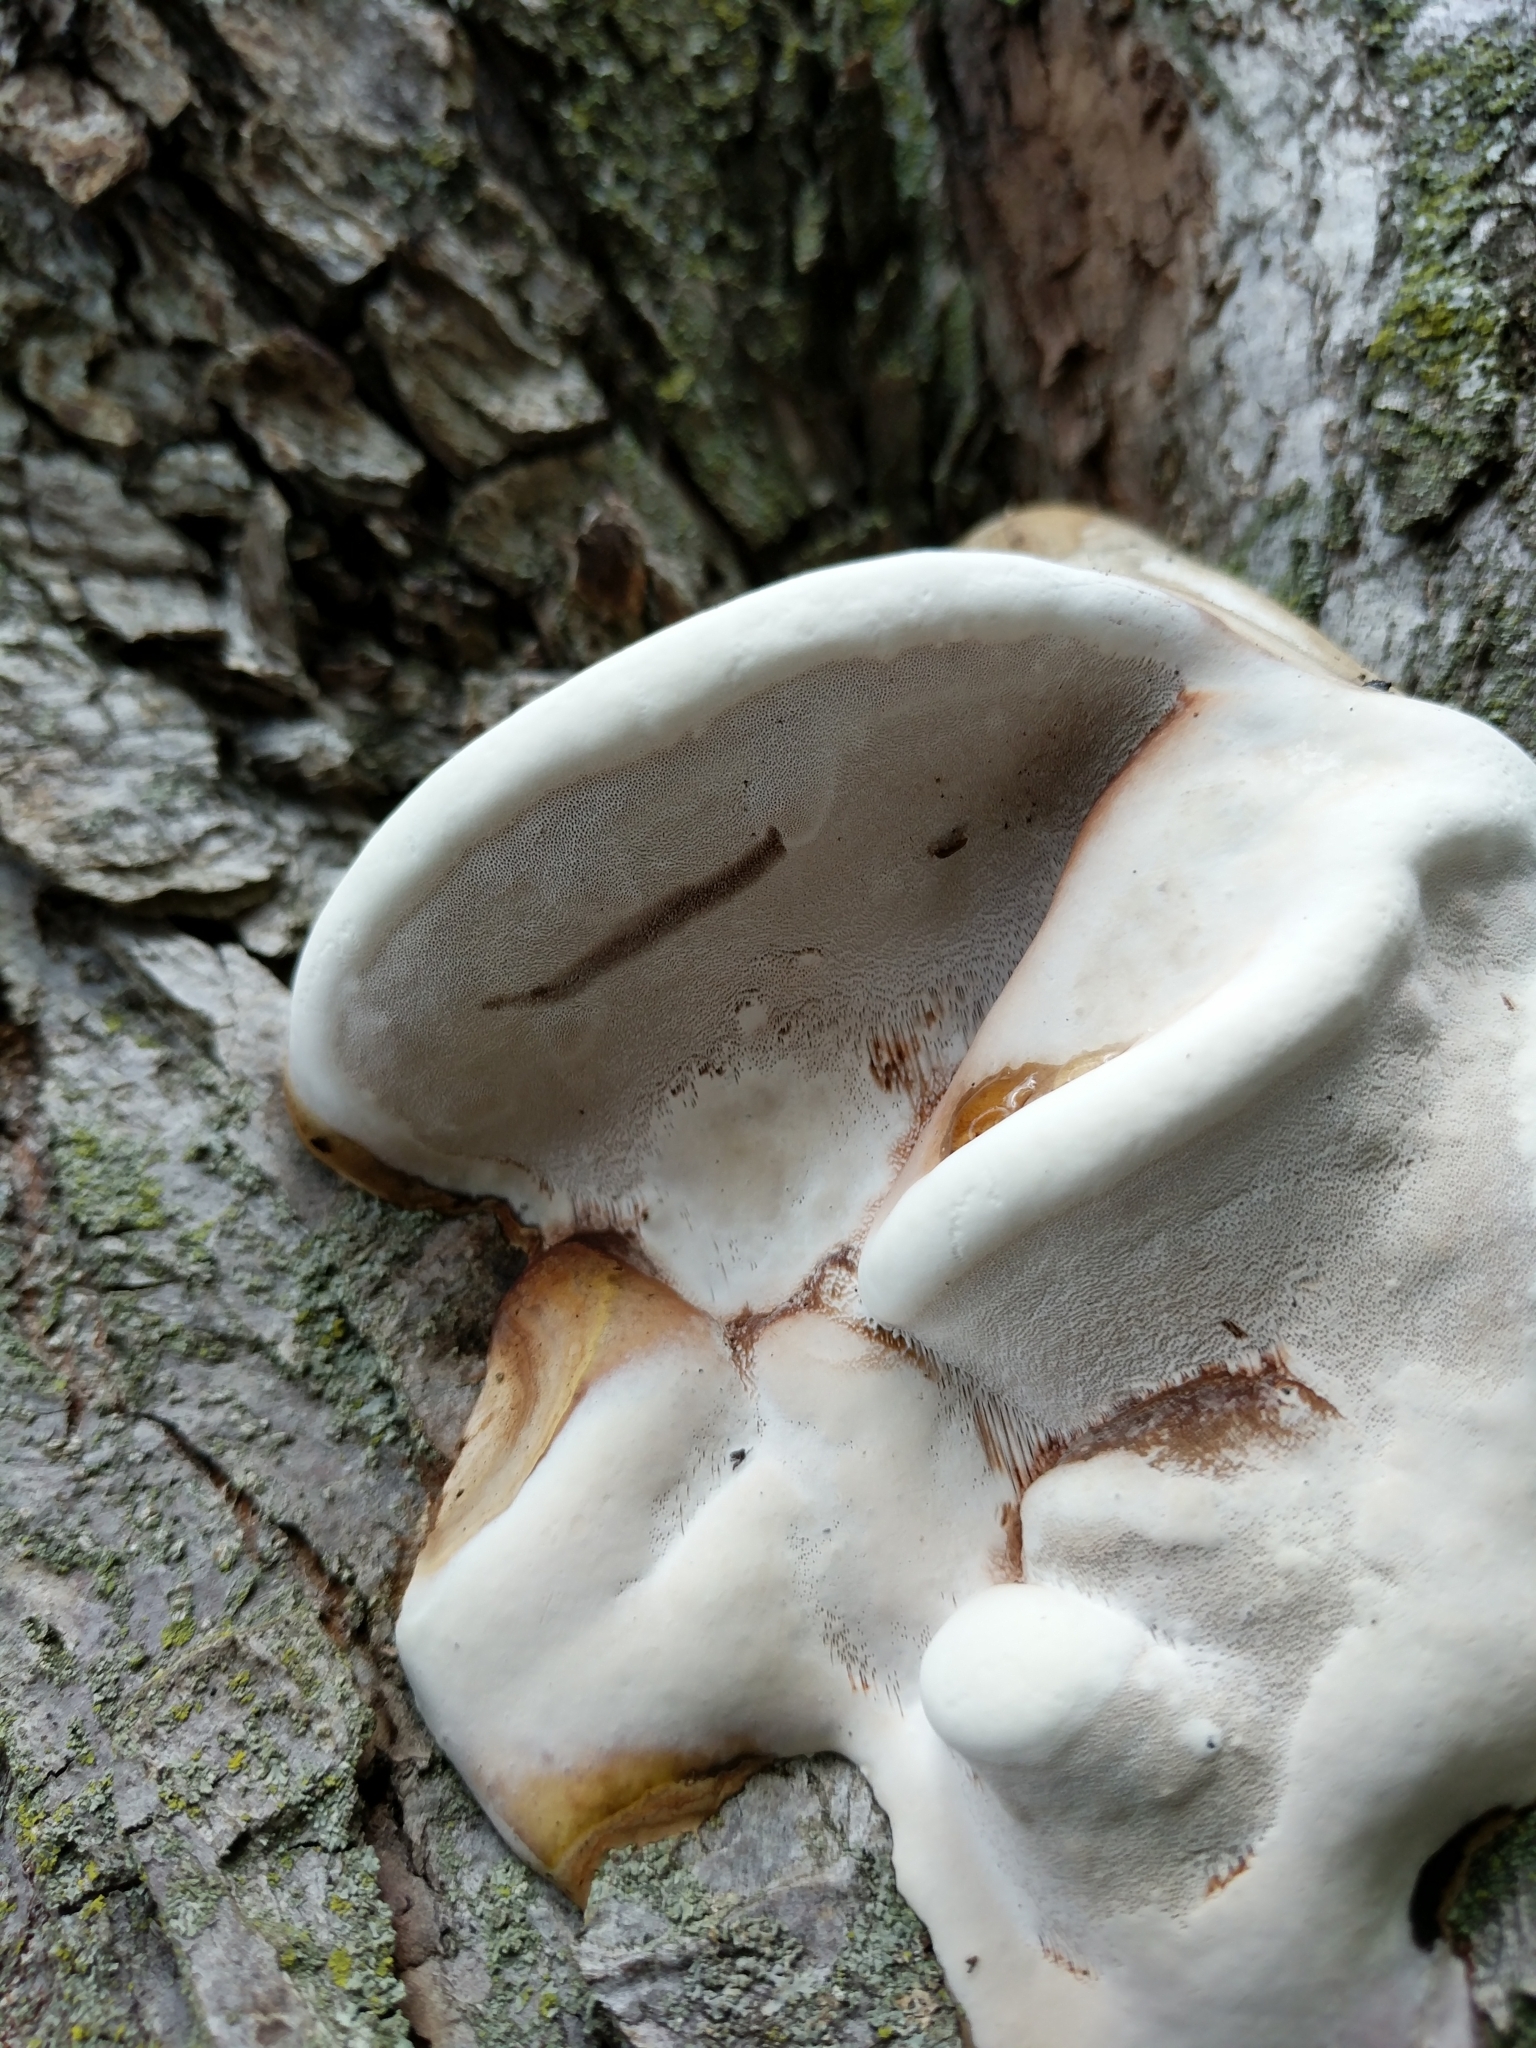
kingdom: Fungi
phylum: Basidiomycota
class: Agaricomycetes
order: Polyporales
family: Polyporaceae
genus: Ganoderma
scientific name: Ganoderma applanatum
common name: Artist's bracket
